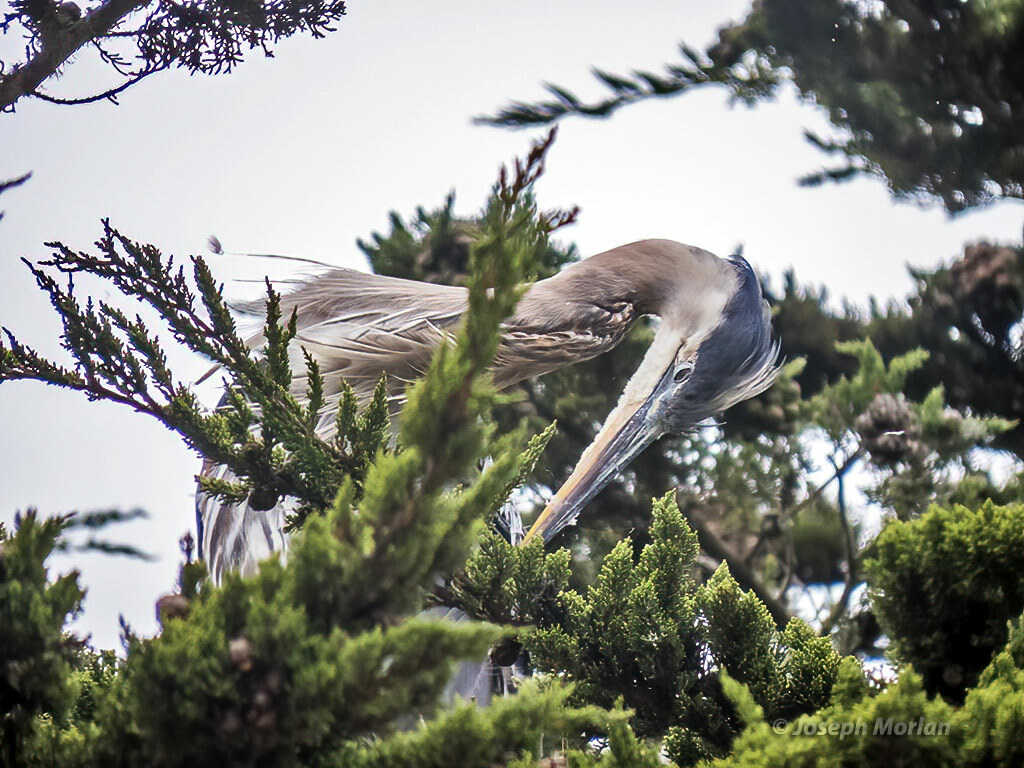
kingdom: Animalia
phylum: Chordata
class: Aves
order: Pelecaniformes
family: Ardeidae
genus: Ardea
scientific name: Ardea herodias
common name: Great blue heron
